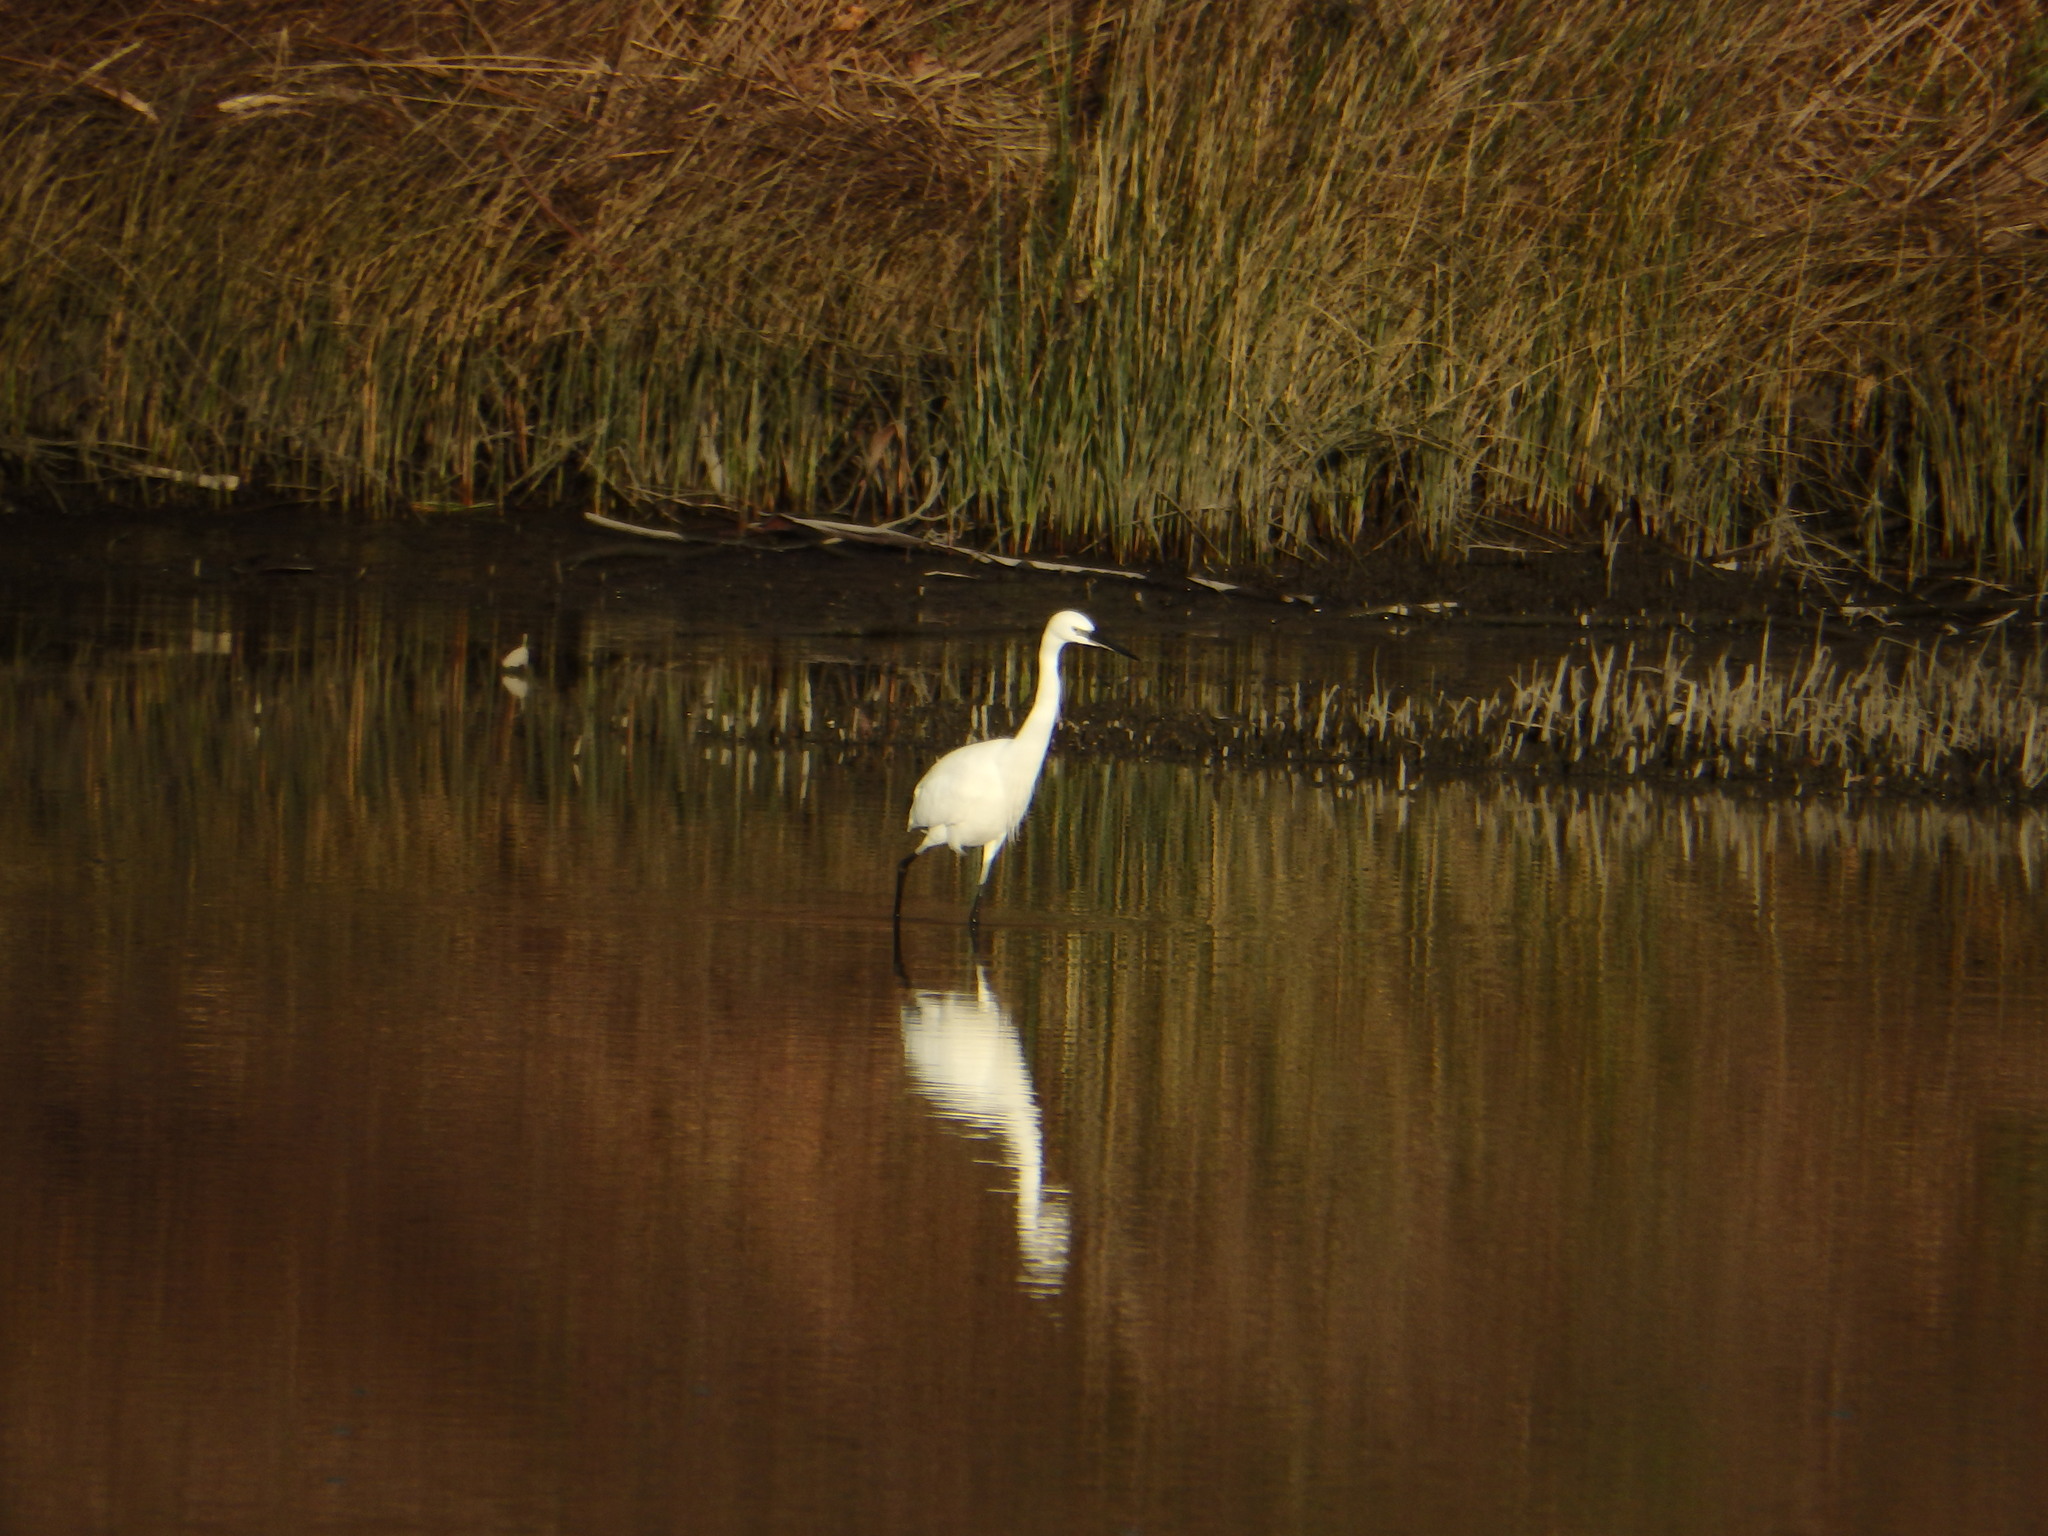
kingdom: Animalia
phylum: Chordata
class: Aves
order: Pelecaniformes
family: Ardeidae
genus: Egretta
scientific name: Egretta garzetta
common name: Little egret
